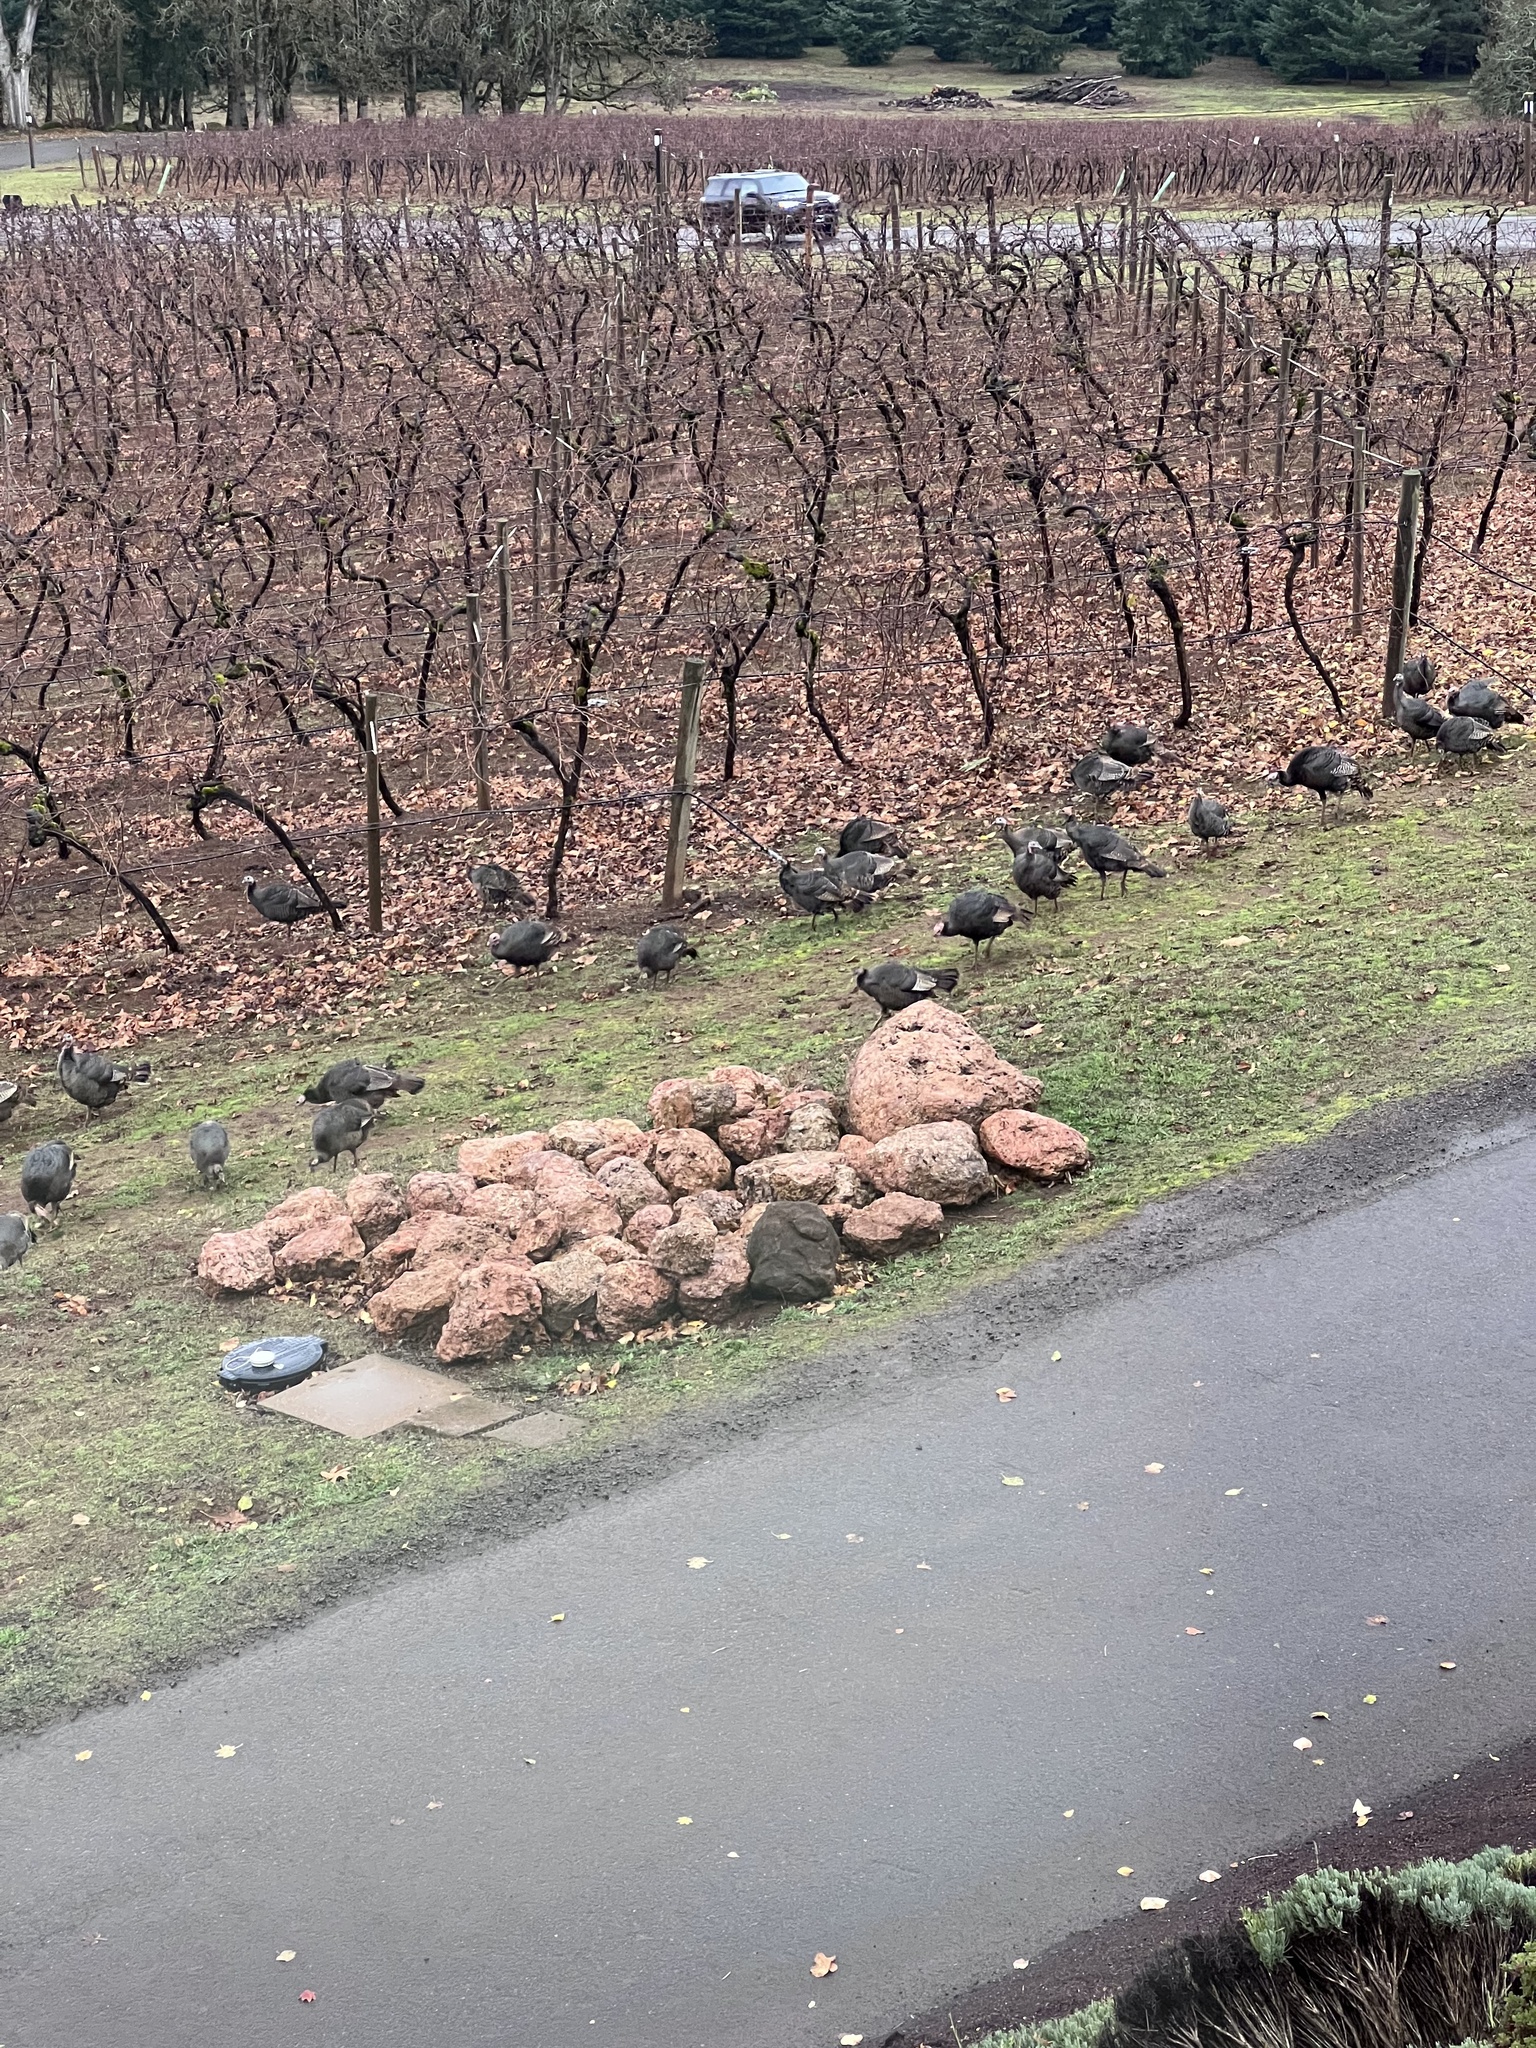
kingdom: Animalia
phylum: Chordata
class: Aves
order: Galliformes
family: Phasianidae
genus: Meleagris
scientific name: Meleagris gallopavo
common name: Wild turkey
